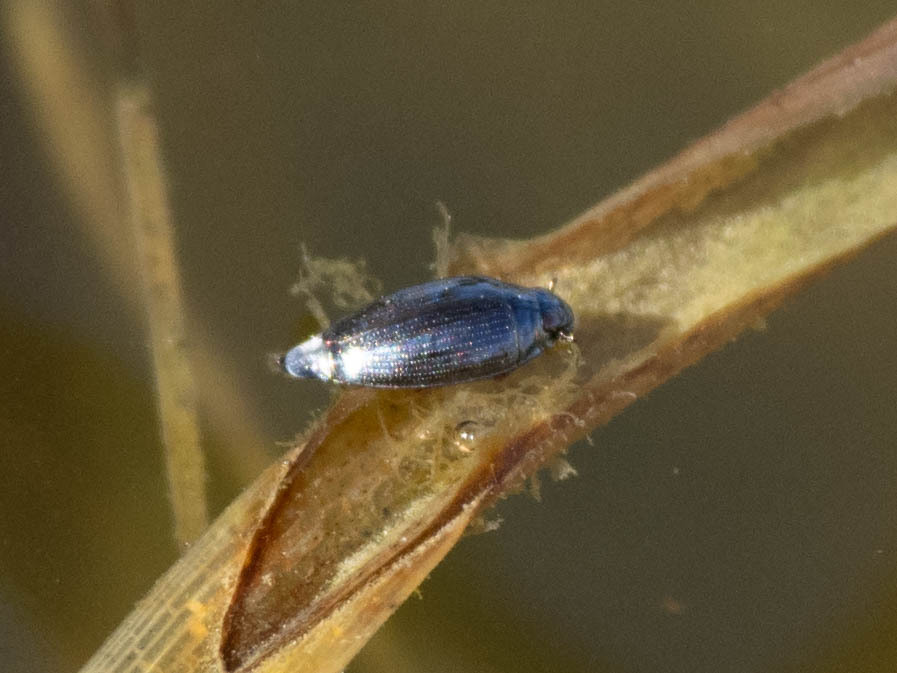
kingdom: Animalia
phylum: Arthropoda
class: Insecta
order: Coleoptera
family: Gyrinidae
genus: Gyrinus
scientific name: Gyrinus
